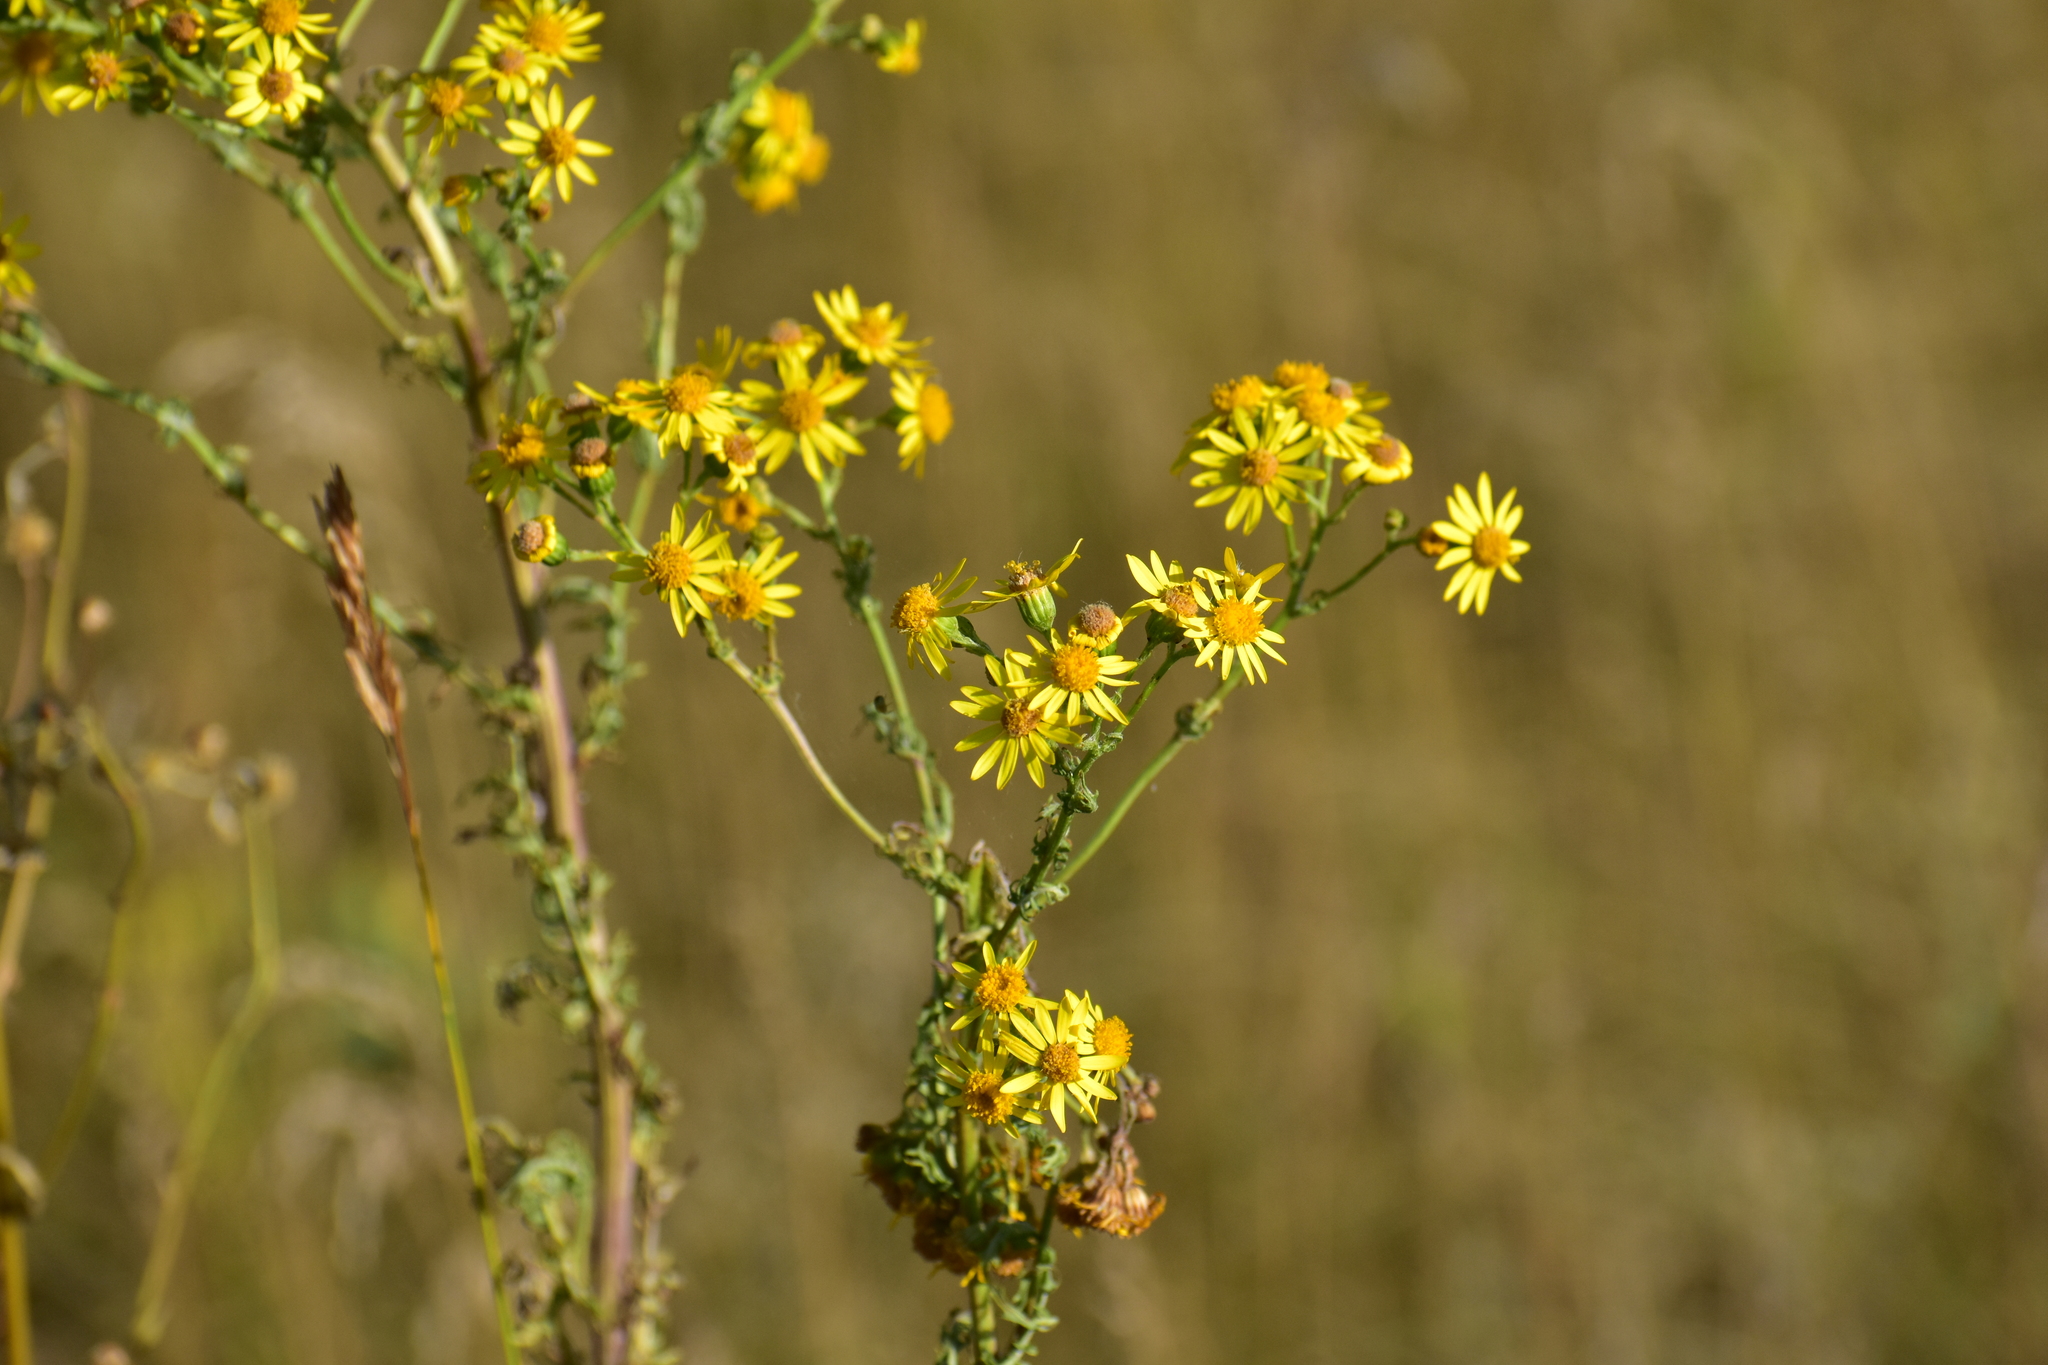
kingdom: Plantae
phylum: Tracheophyta
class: Magnoliopsida
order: Asterales
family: Asteraceae
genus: Jacobaea
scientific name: Jacobaea vulgaris
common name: Stinking willie
